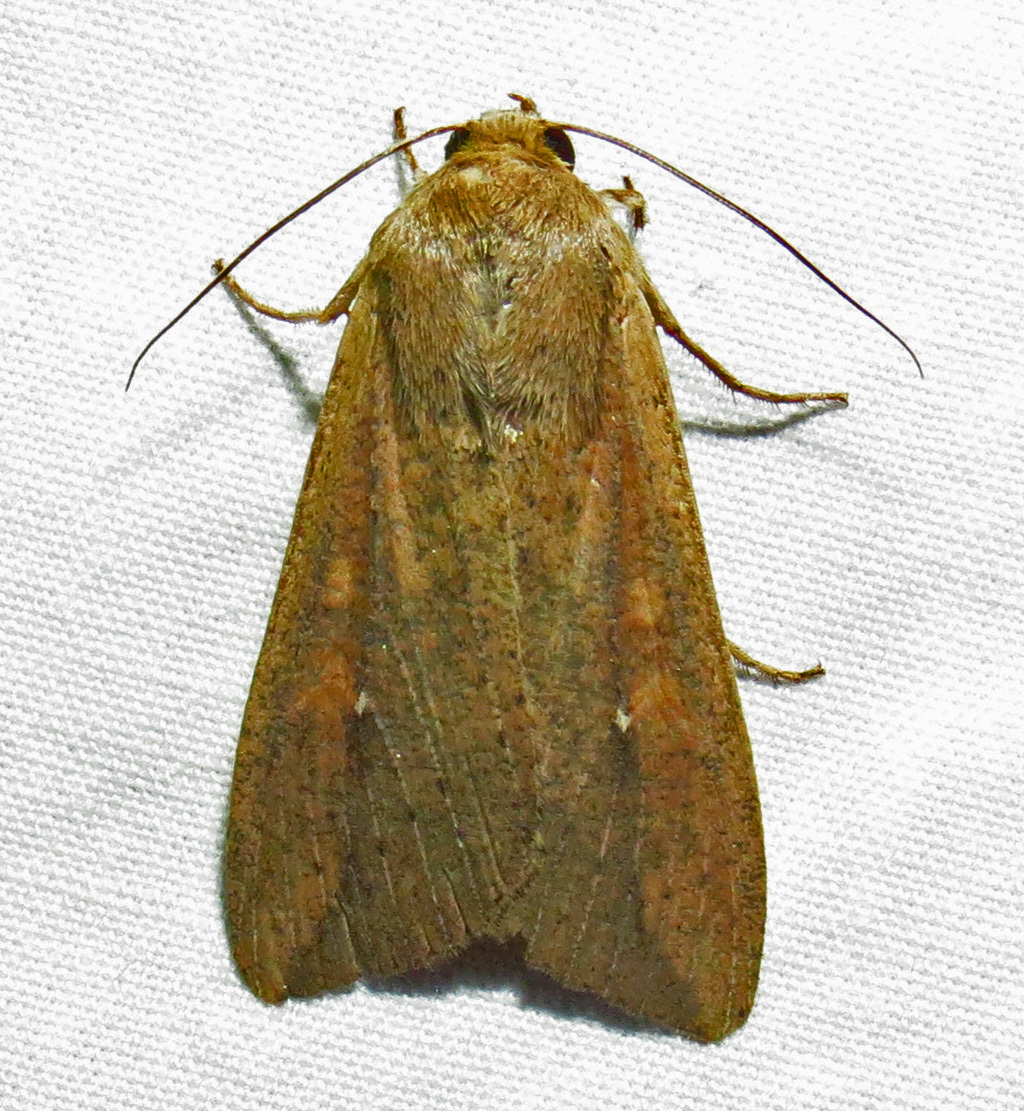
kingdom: Animalia
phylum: Arthropoda
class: Insecta
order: Lepidoptera
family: Noctuidae
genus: Mythimna
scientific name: Mythimna unipuncta
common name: White-speck
